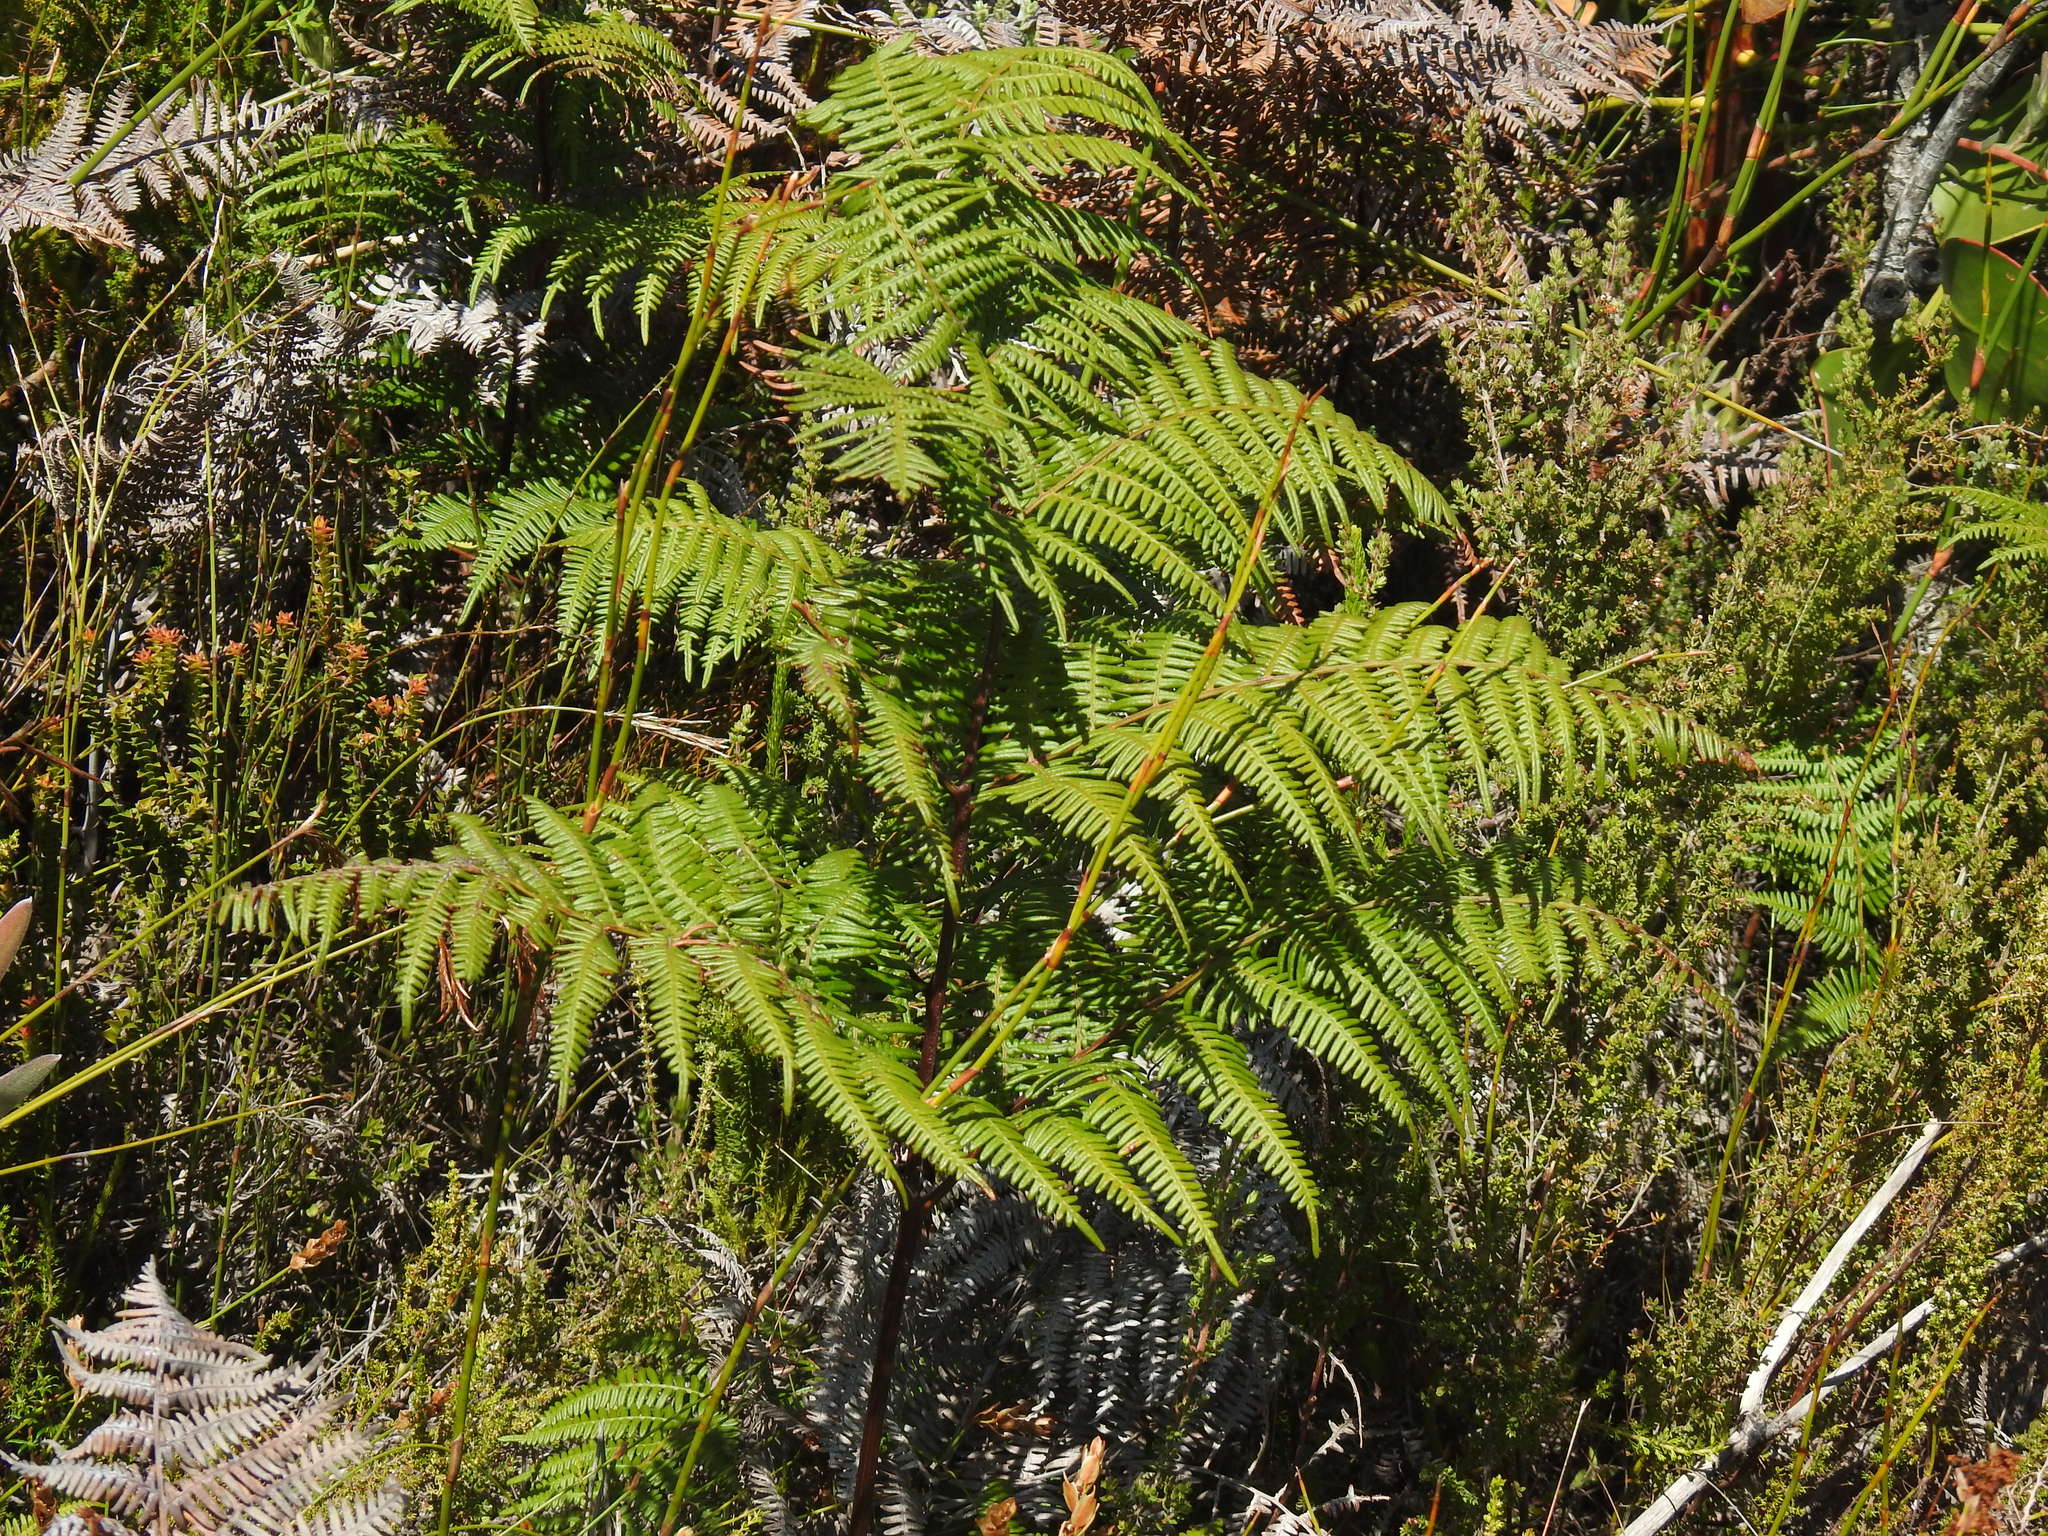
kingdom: Plantae
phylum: Tracheophyta
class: Polypodiopsida
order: Polypodiales
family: Dennstaedtiaceae
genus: Pteridium
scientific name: Pteridium aquilinum
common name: Bracken
